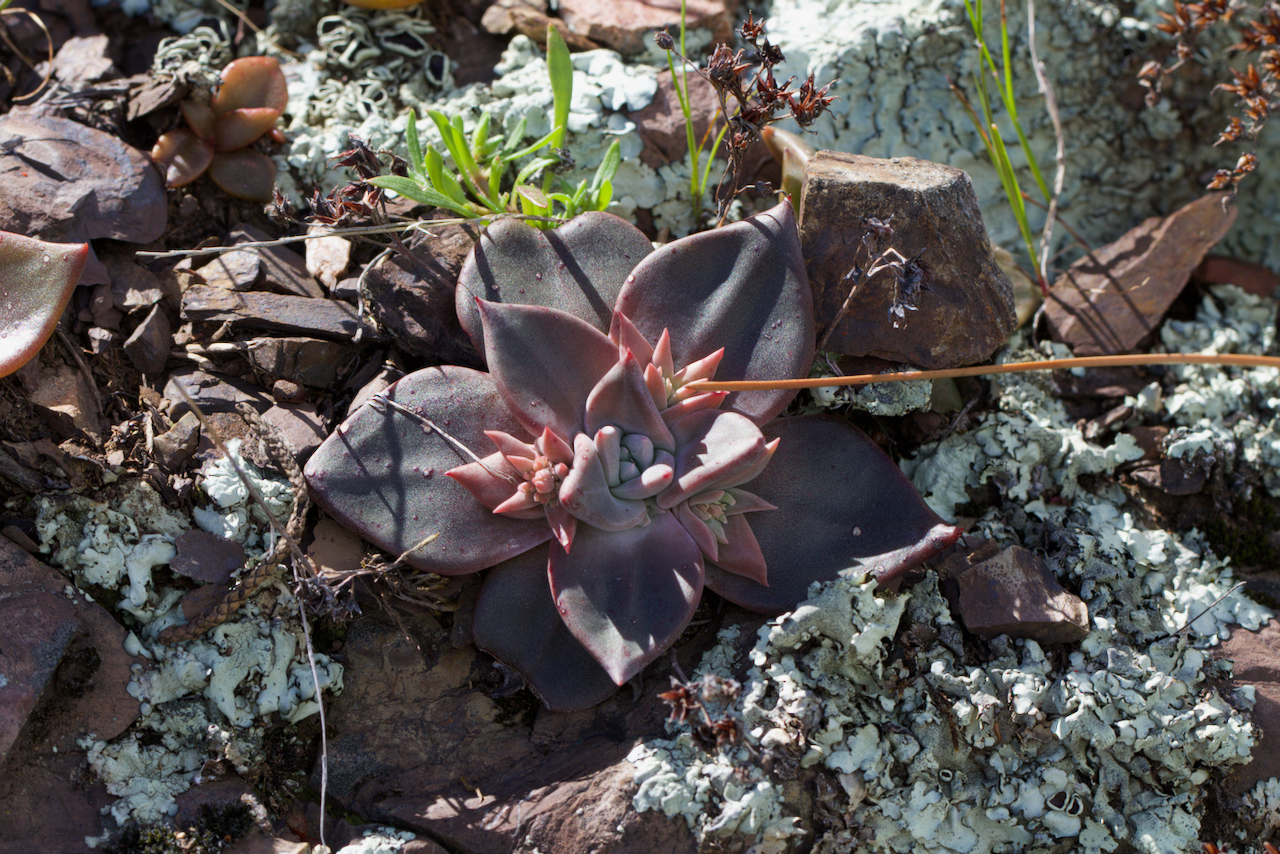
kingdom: Plantae
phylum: Tracheophyta
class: Magnoliopsida
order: Saxifragales
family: Crassulaceae
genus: Dudleya
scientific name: Dudleya cymosa
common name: Canyon dudleya
